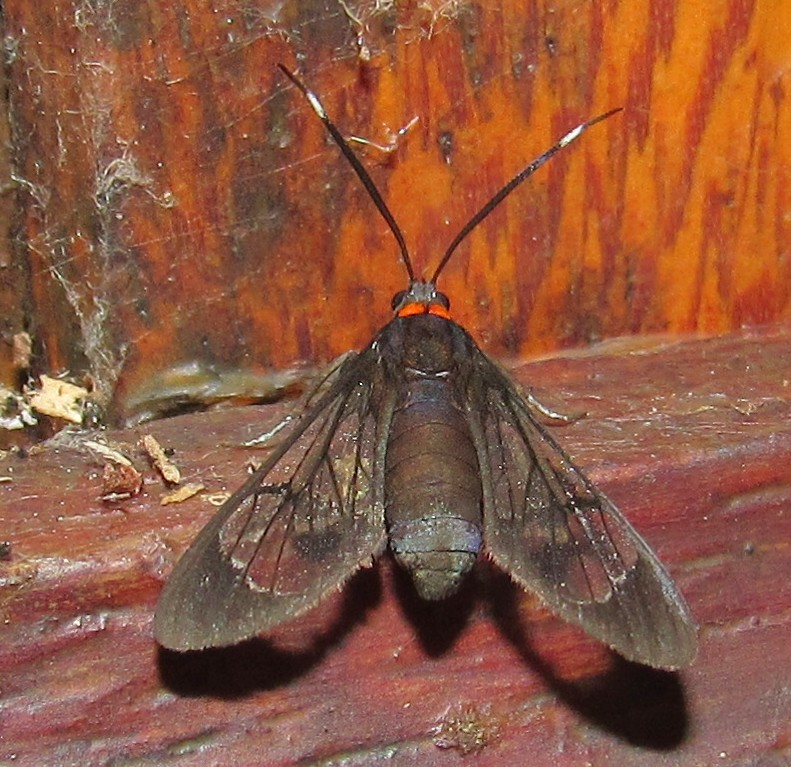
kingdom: Animalia
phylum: Arthropoda
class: Insecta
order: Lepidoptera
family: Erebidae
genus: Loxophlebia
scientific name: Loxophlebia geminata
